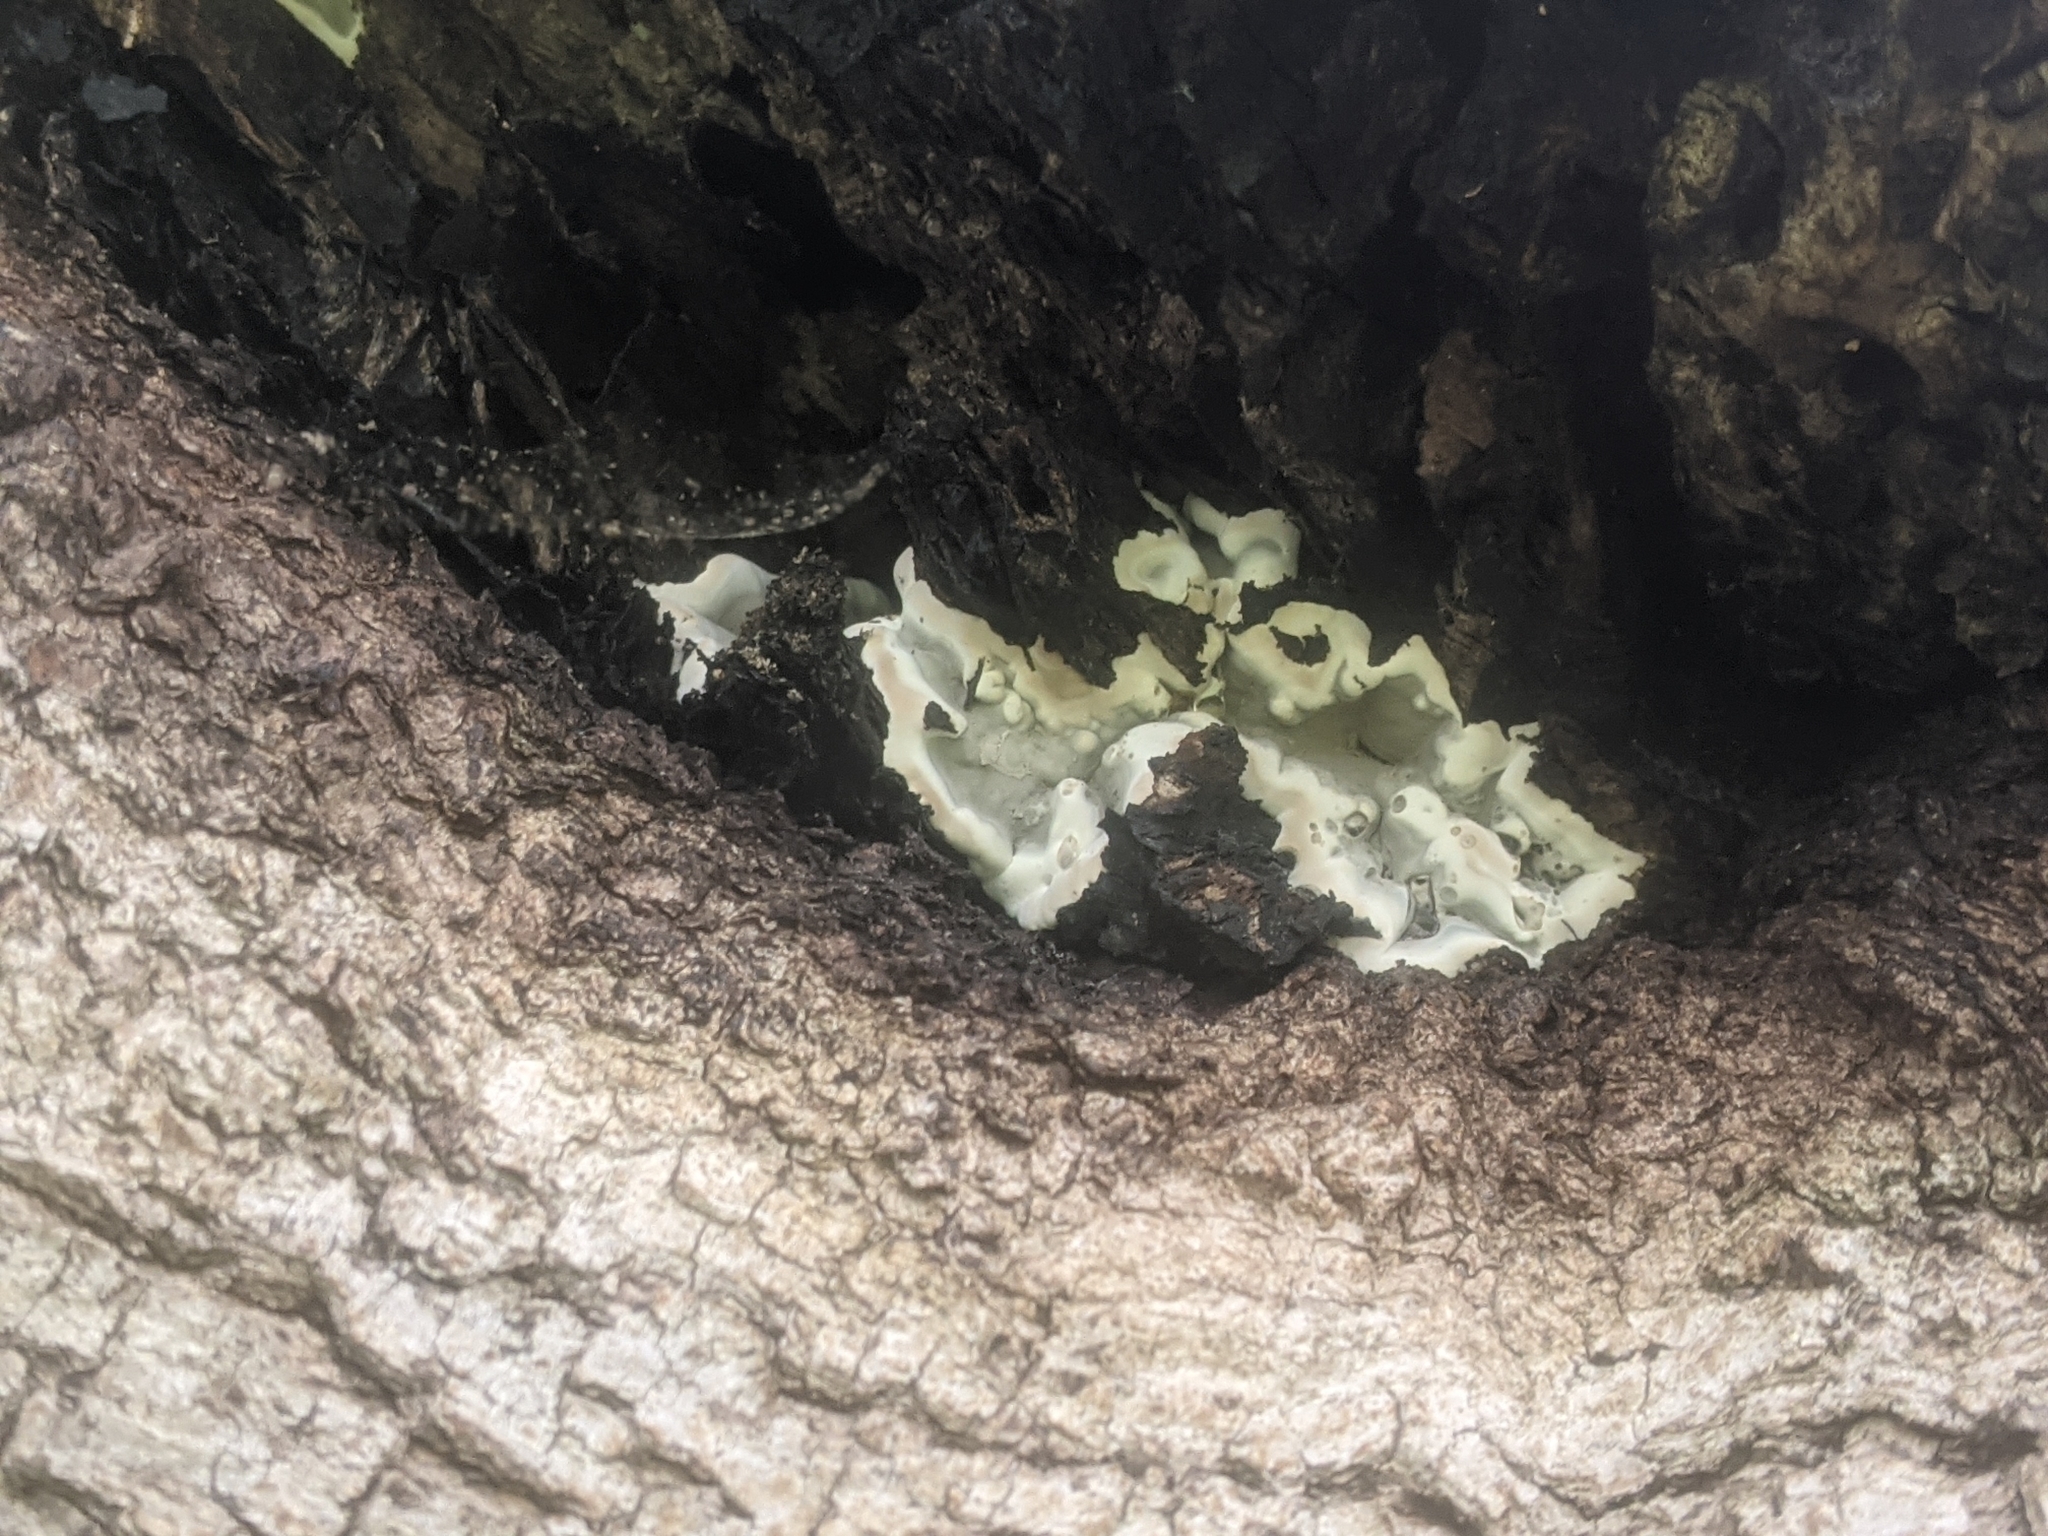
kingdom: Fungi
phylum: Ascomycota
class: Sordariomycetes
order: Xylariales
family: Xylariaceae
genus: Kretzschmaria
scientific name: Kretzschmaria deusta
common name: Brittle cinder
